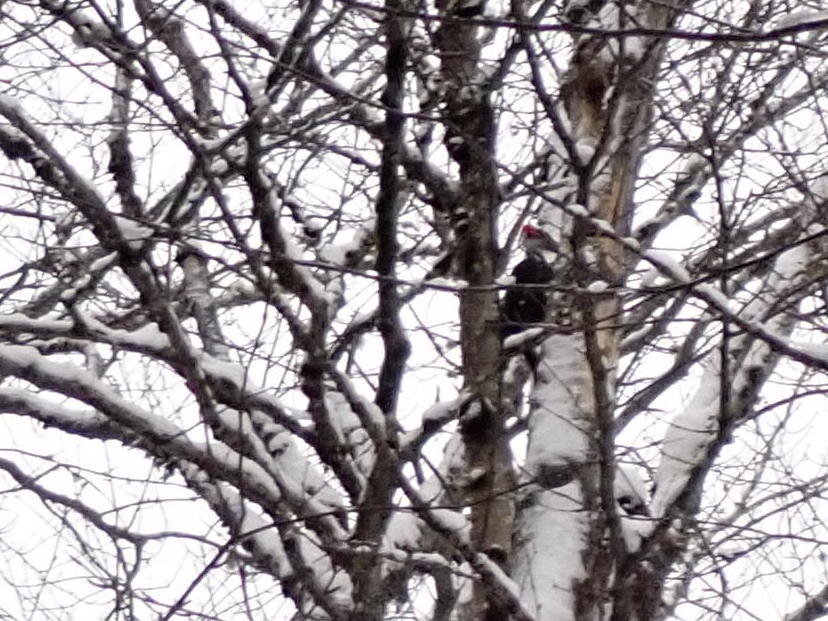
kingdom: Animalia
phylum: Chordata
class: Aves
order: Piciformes
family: Picidae
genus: Dryocopus
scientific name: Dryocopus pileatus
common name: Pileated woodpecker
